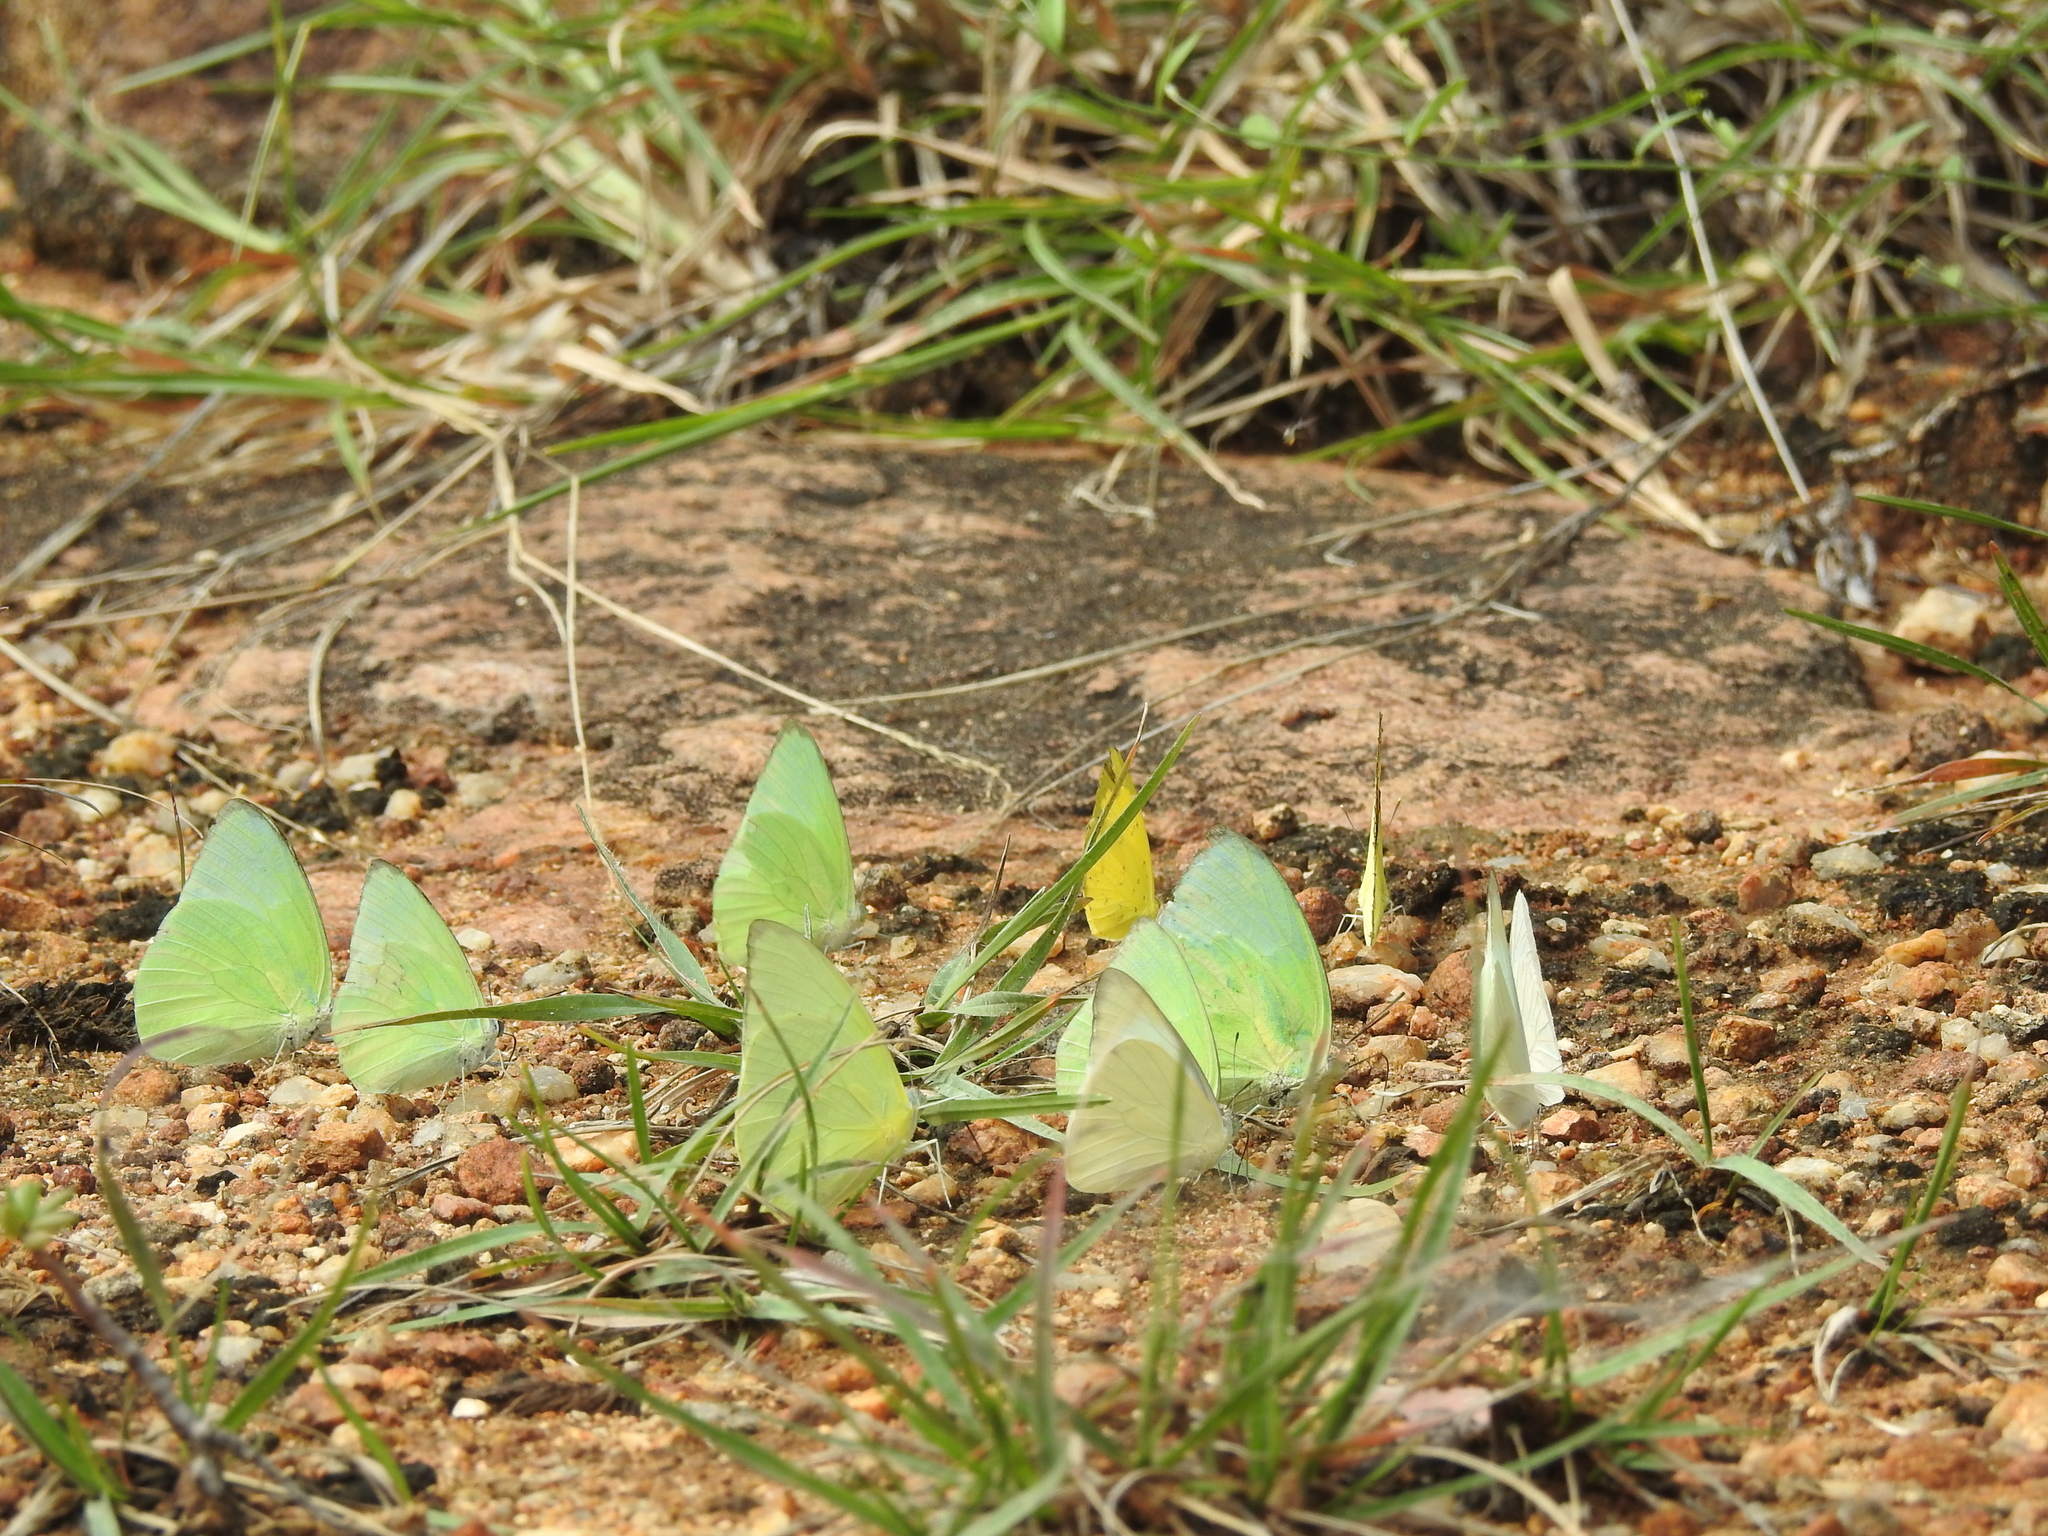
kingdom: Animalia
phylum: Arthropoda
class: Insecta
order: Lepidoptera
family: Pieridae
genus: Catopsilia
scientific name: Catopsilia pomona
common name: Common emigrant
